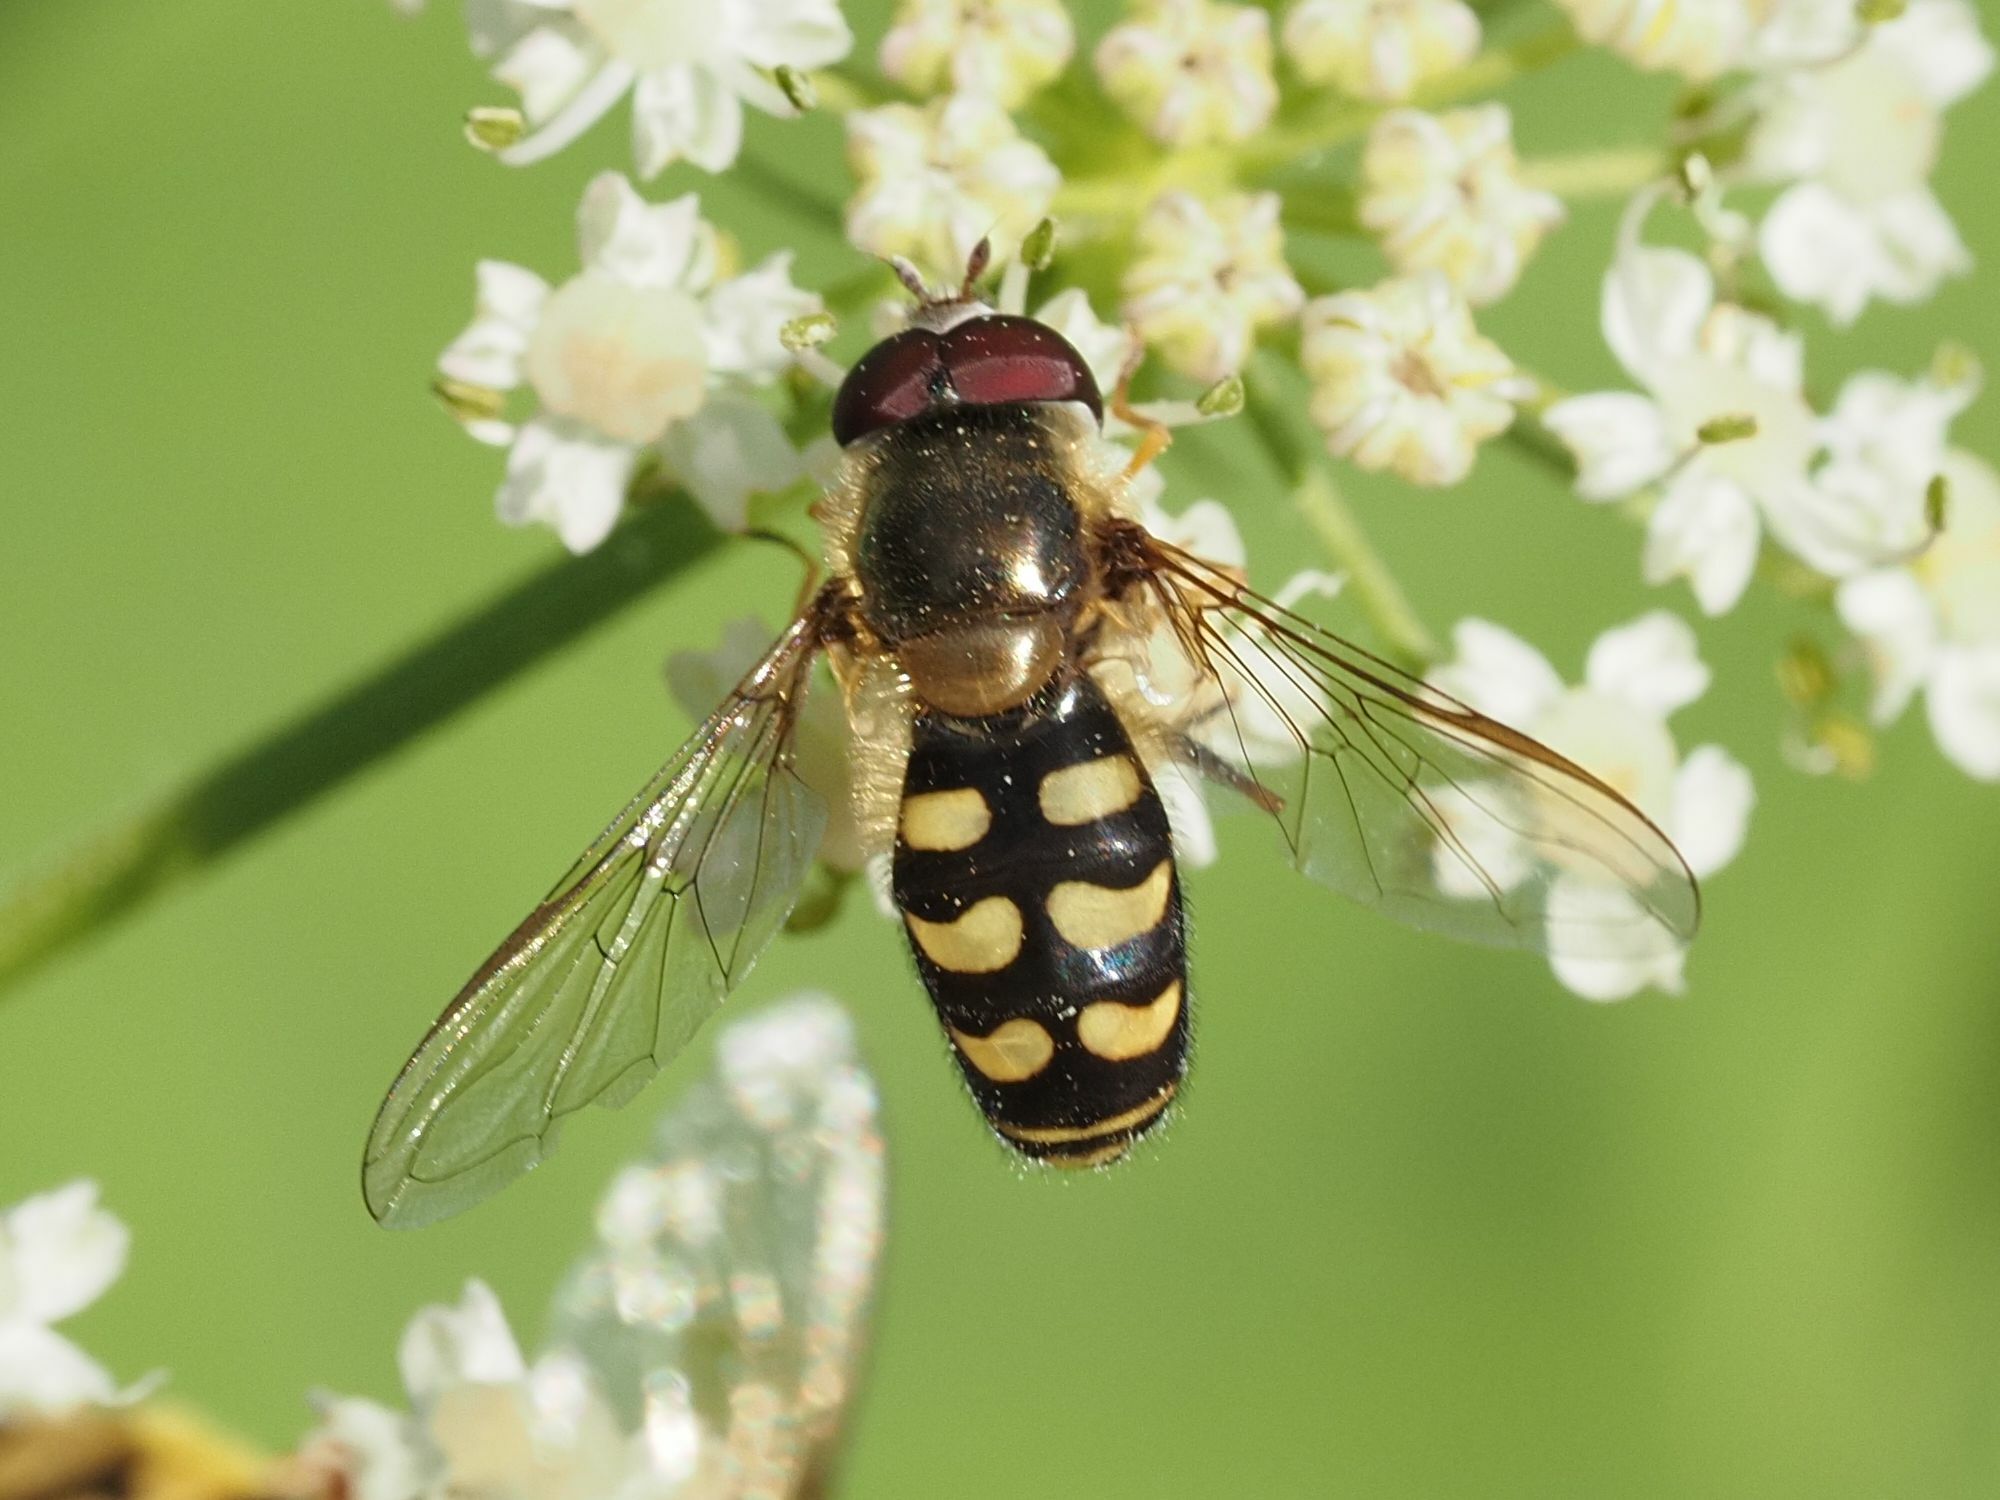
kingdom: Animalia
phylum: Arthropoda
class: Insecta
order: Diptera
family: Syrphidae
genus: Lapposyrphus
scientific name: Lapposyrphus lapponicus
